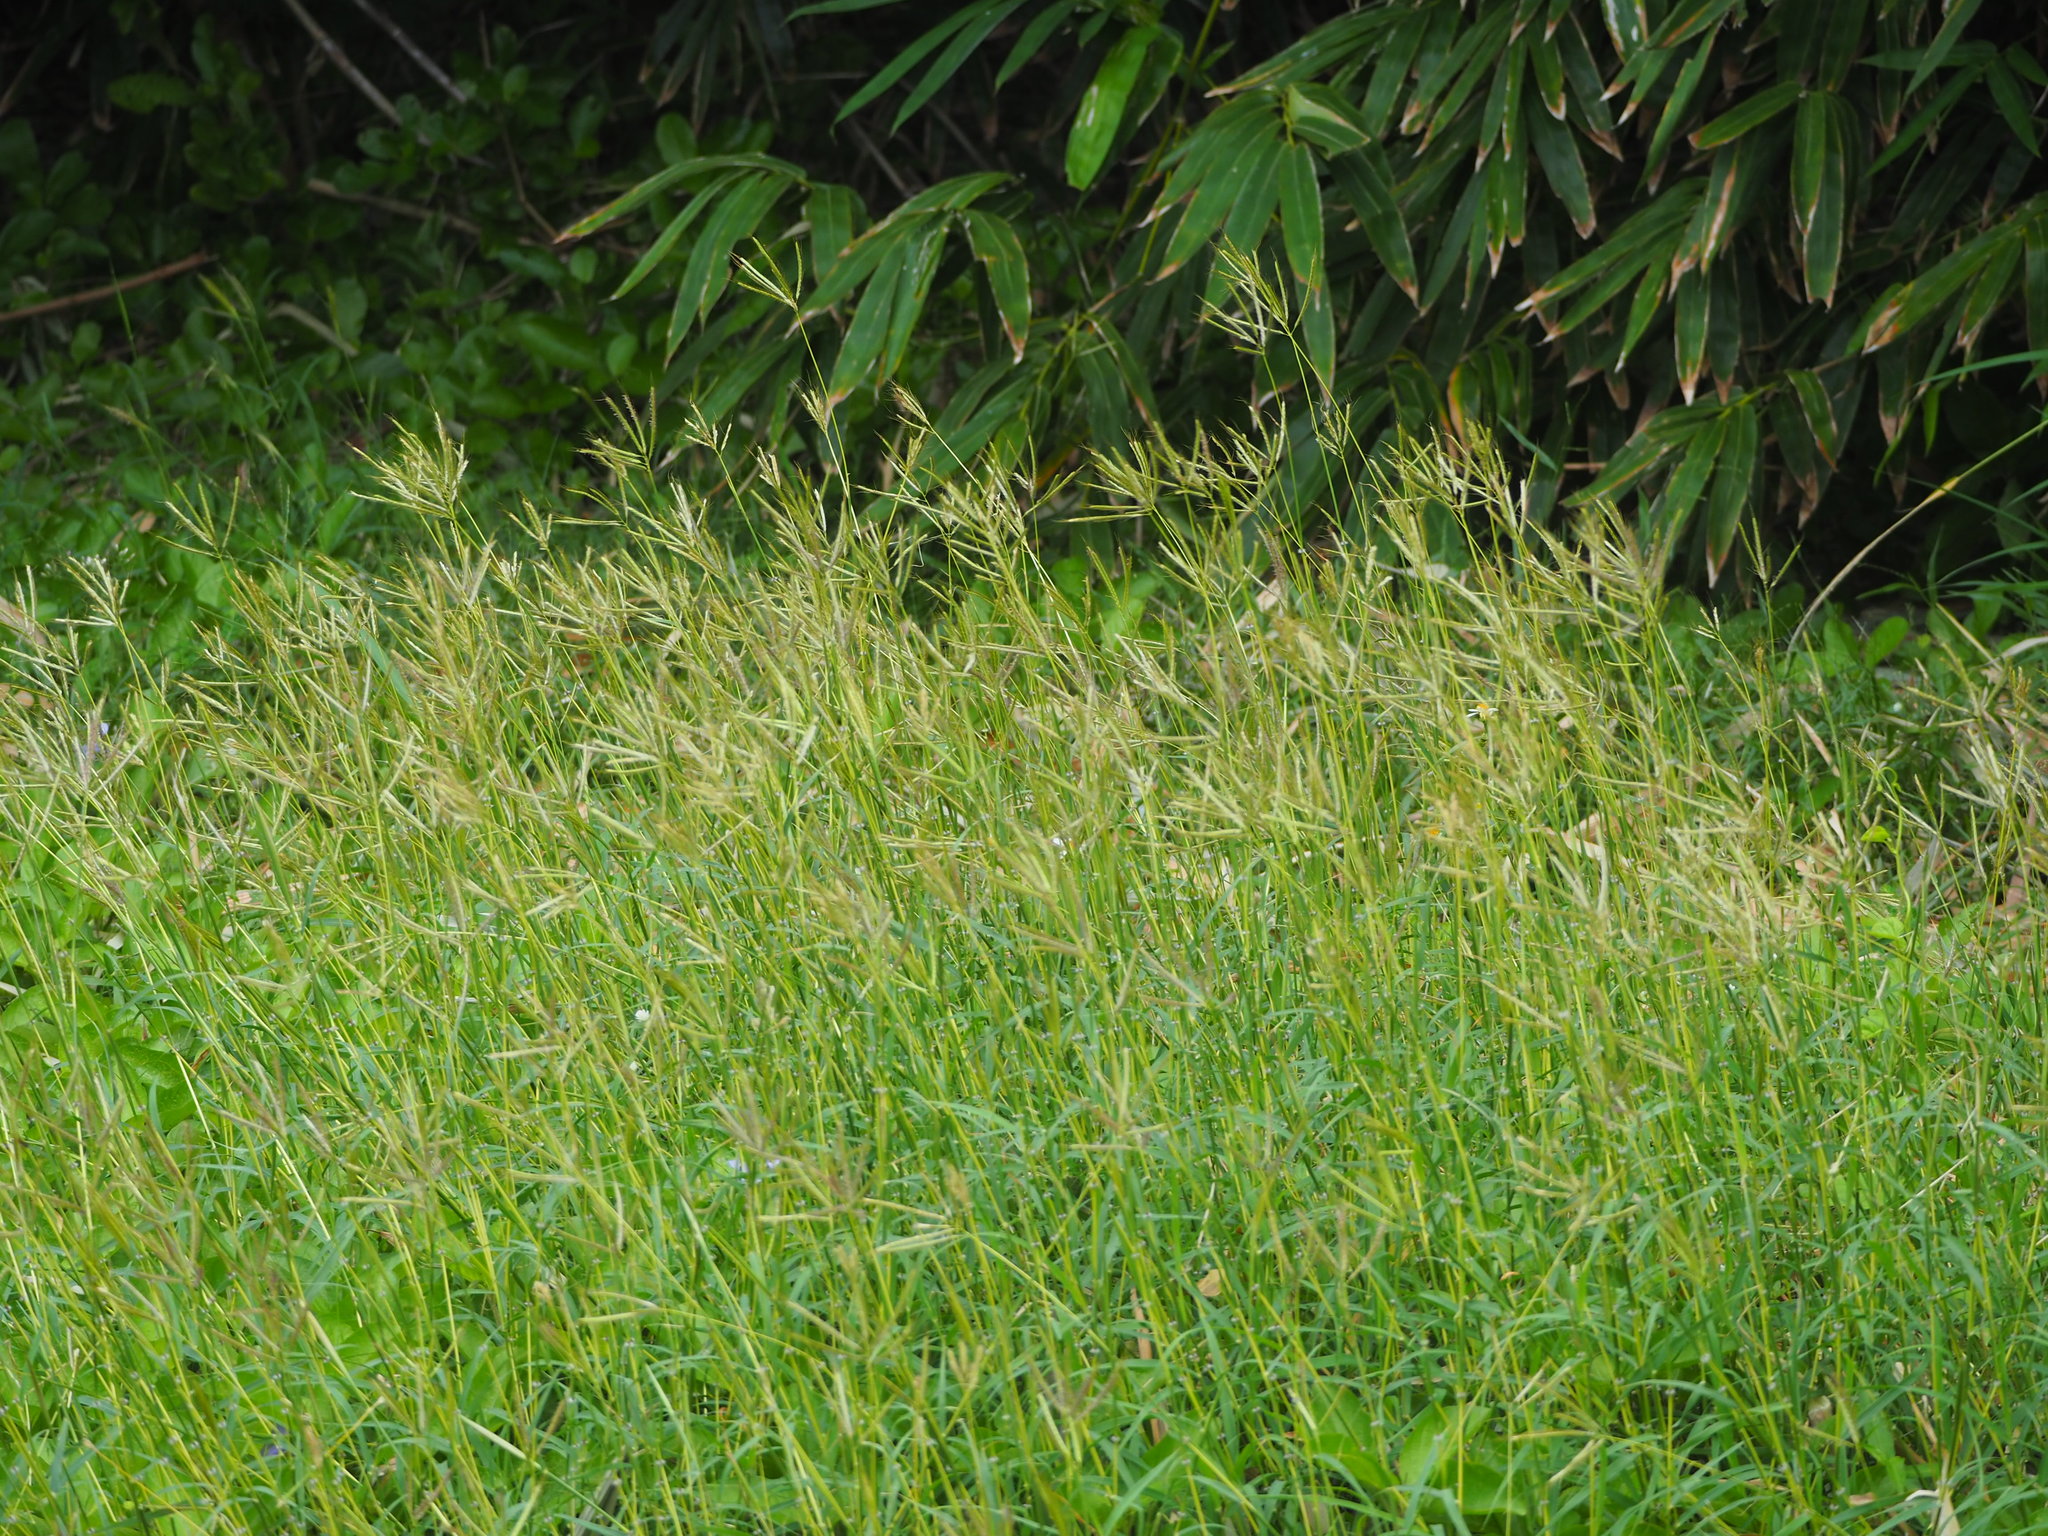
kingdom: Plantae
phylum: Tracheophyta
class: Liliopsida
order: Poales
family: Poaceae
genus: Dichanthium
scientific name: Dichanthium annulatum
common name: Kleberg's bluestem
